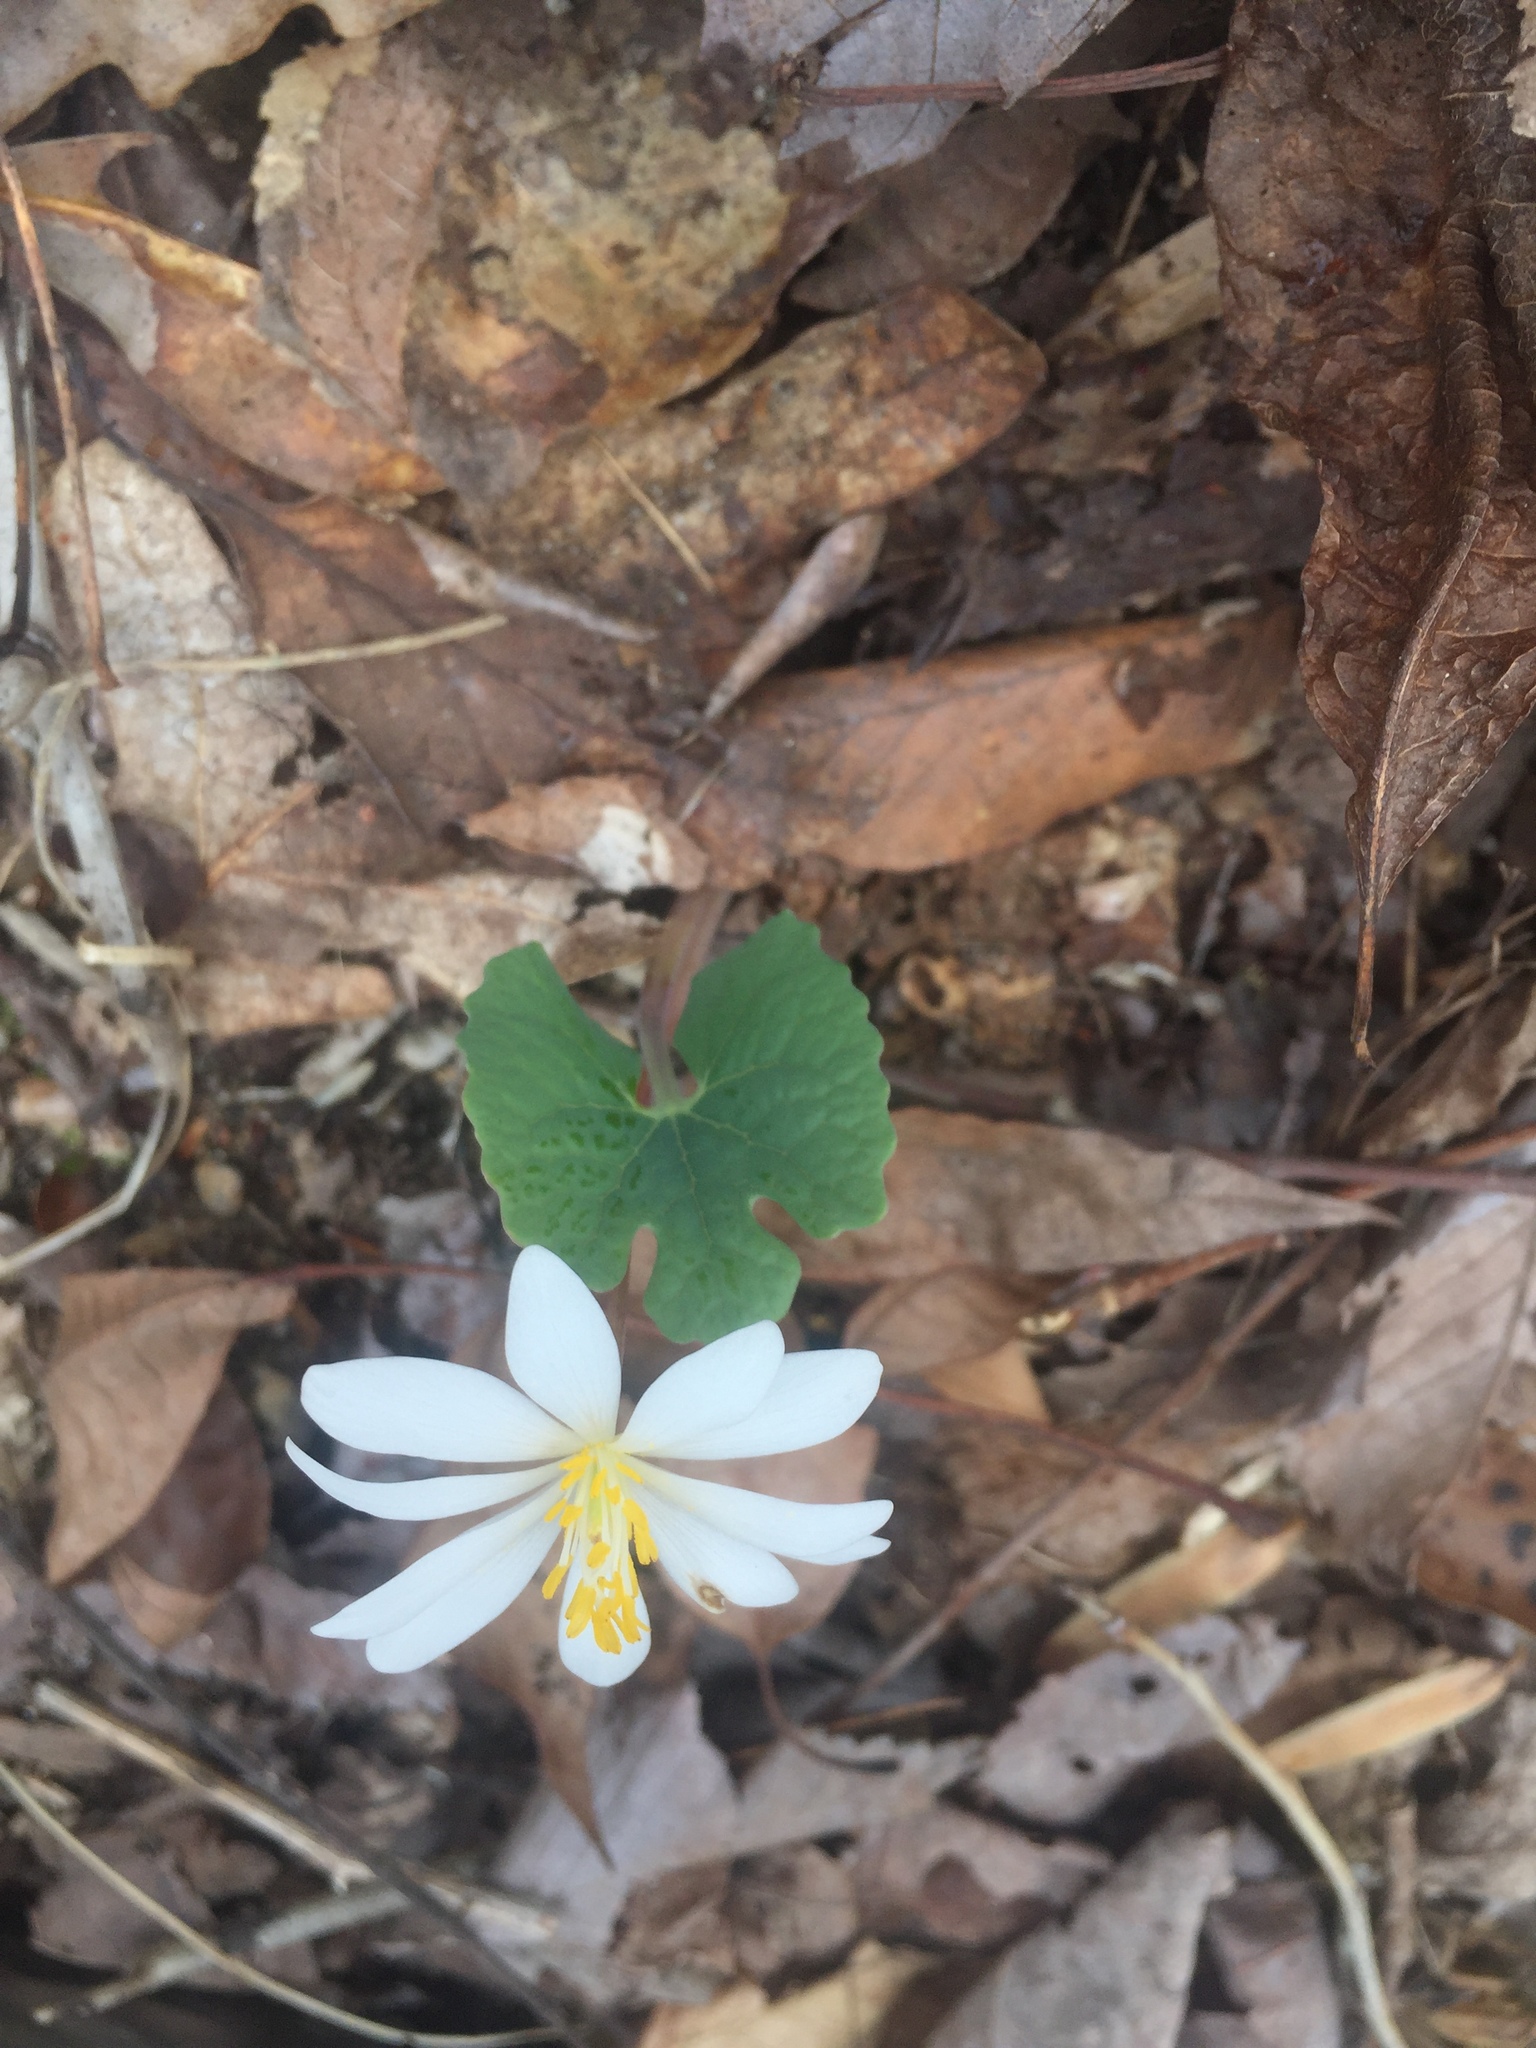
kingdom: Plantae
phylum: Tracheophyta
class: Magnoliopsida
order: Ranunculales
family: Papaveraceae
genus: Sanguinaria
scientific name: Sanguinaria canadensis
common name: Bloodroot
